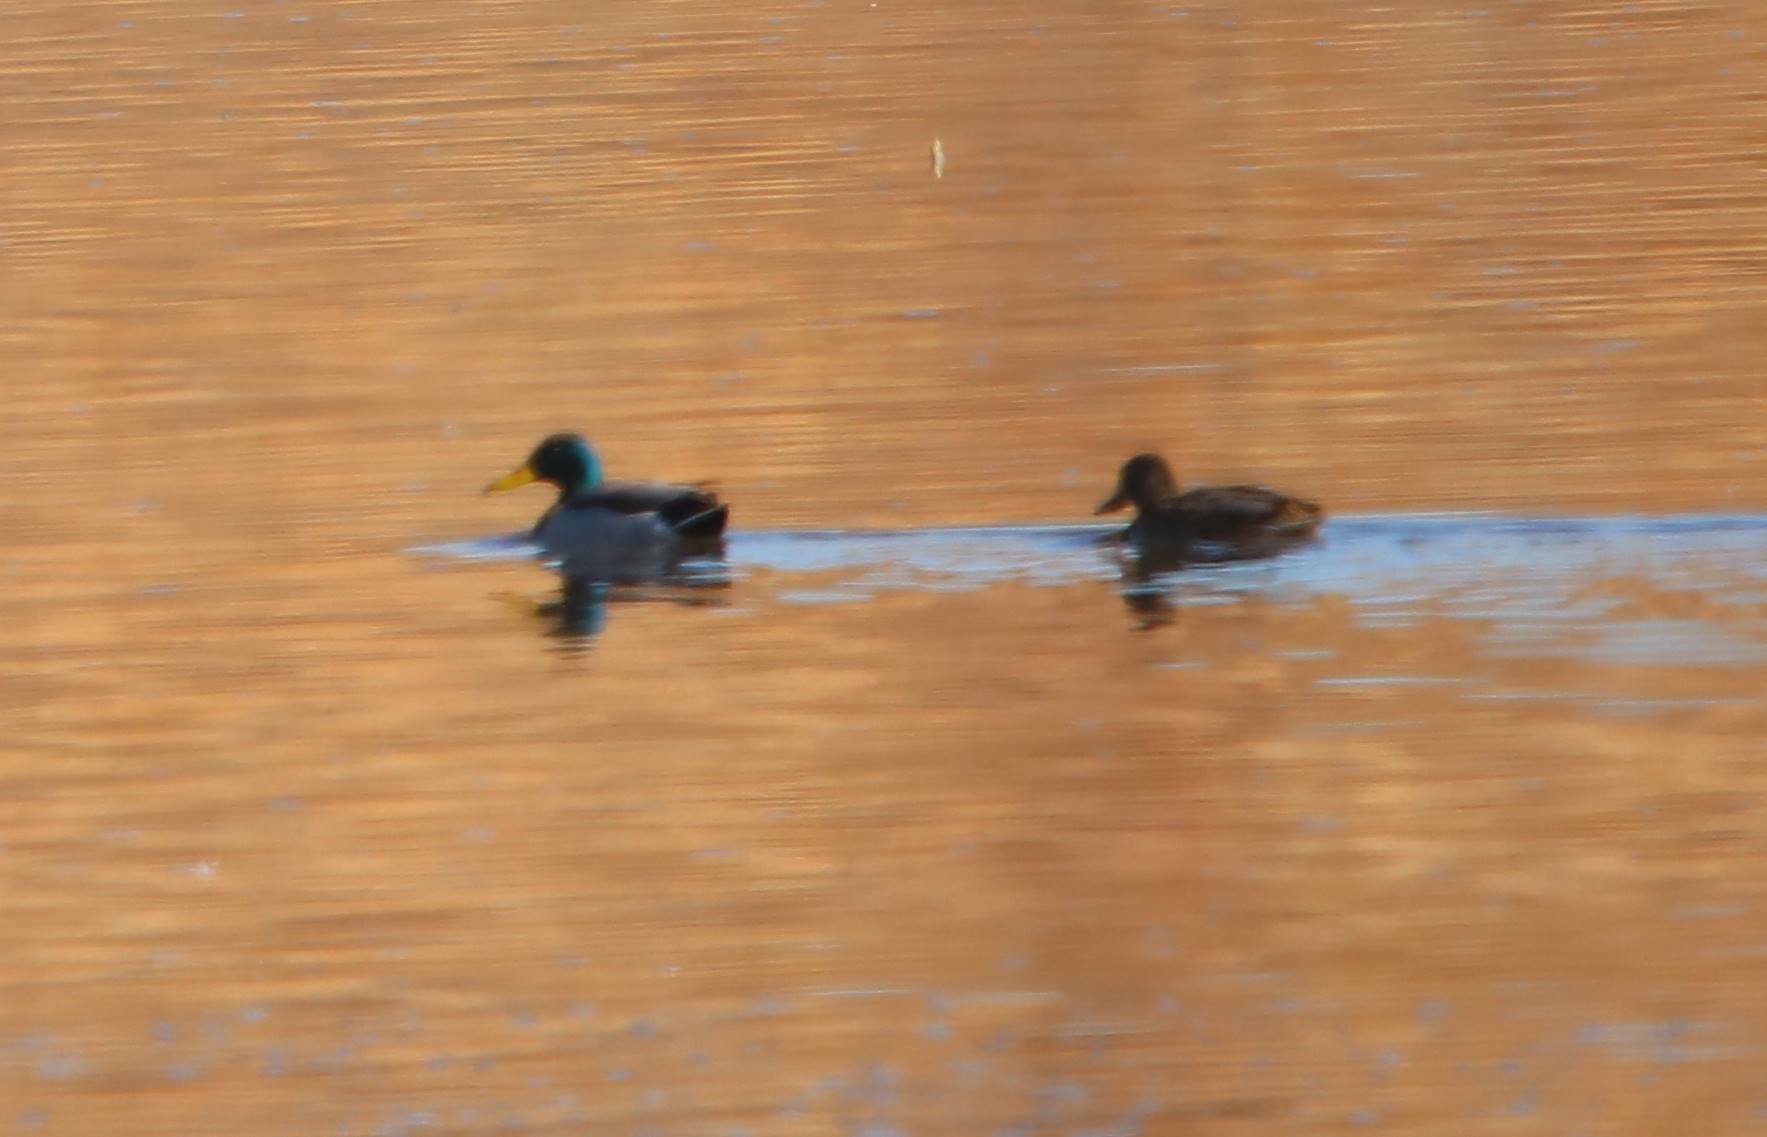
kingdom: Animalia
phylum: Chordata
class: Aves
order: Anseriformes
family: Anatidae
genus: Anas
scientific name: Anas platyrhynchos
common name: Mallard
